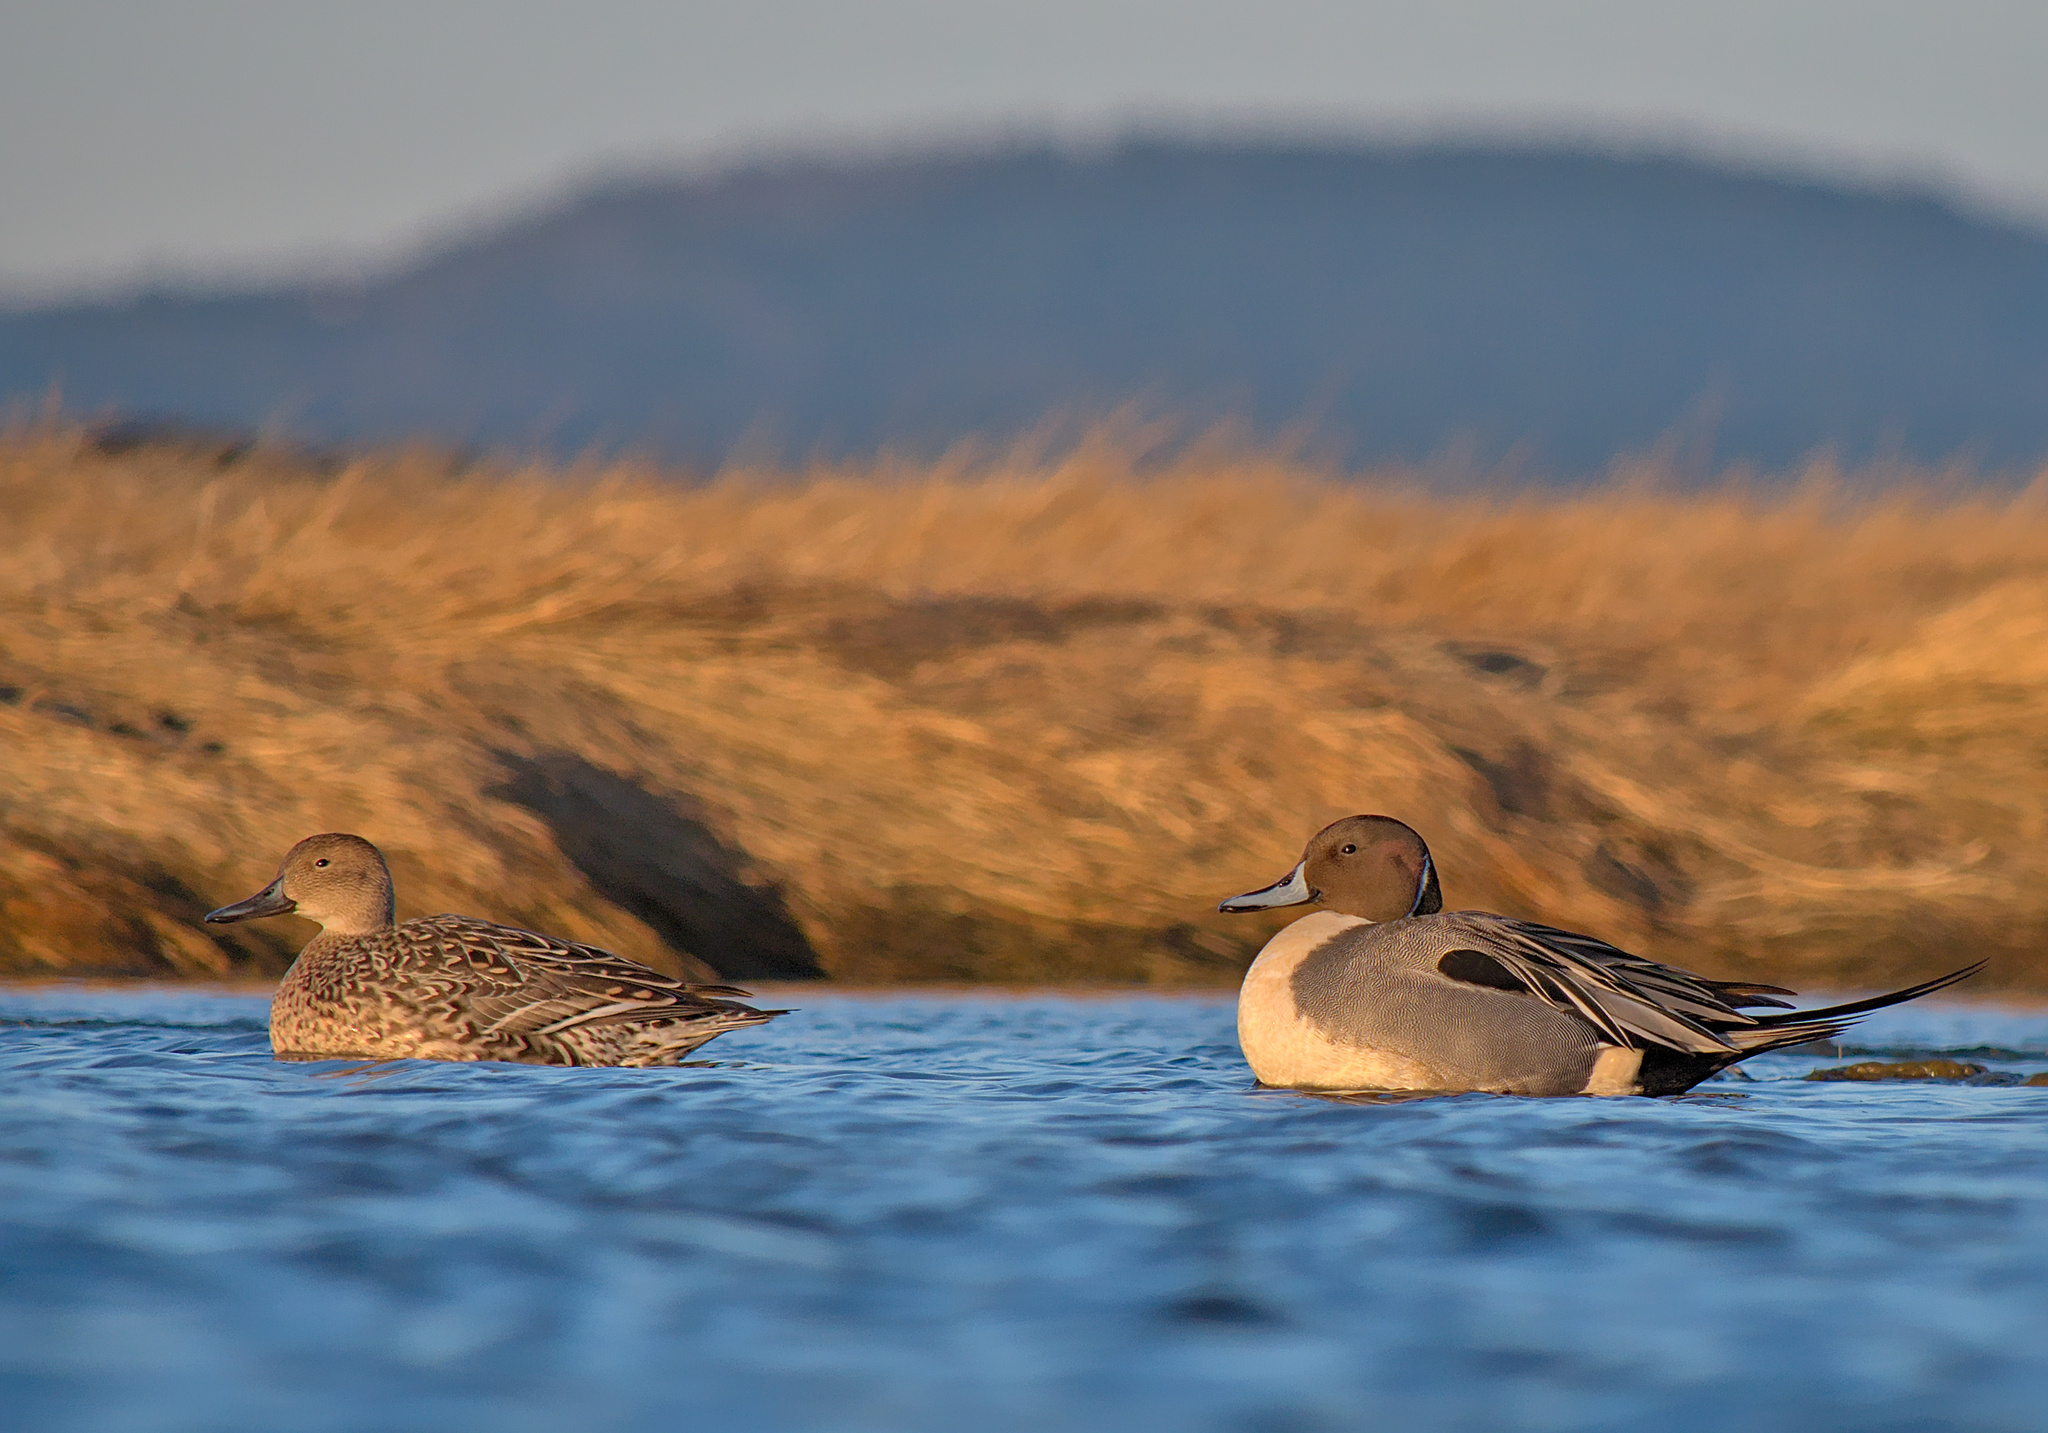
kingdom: Animalia
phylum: Chordata
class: Aves
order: Anseriformes
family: Anatidae
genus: Anas
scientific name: Anas acuta
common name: Northern pintail
